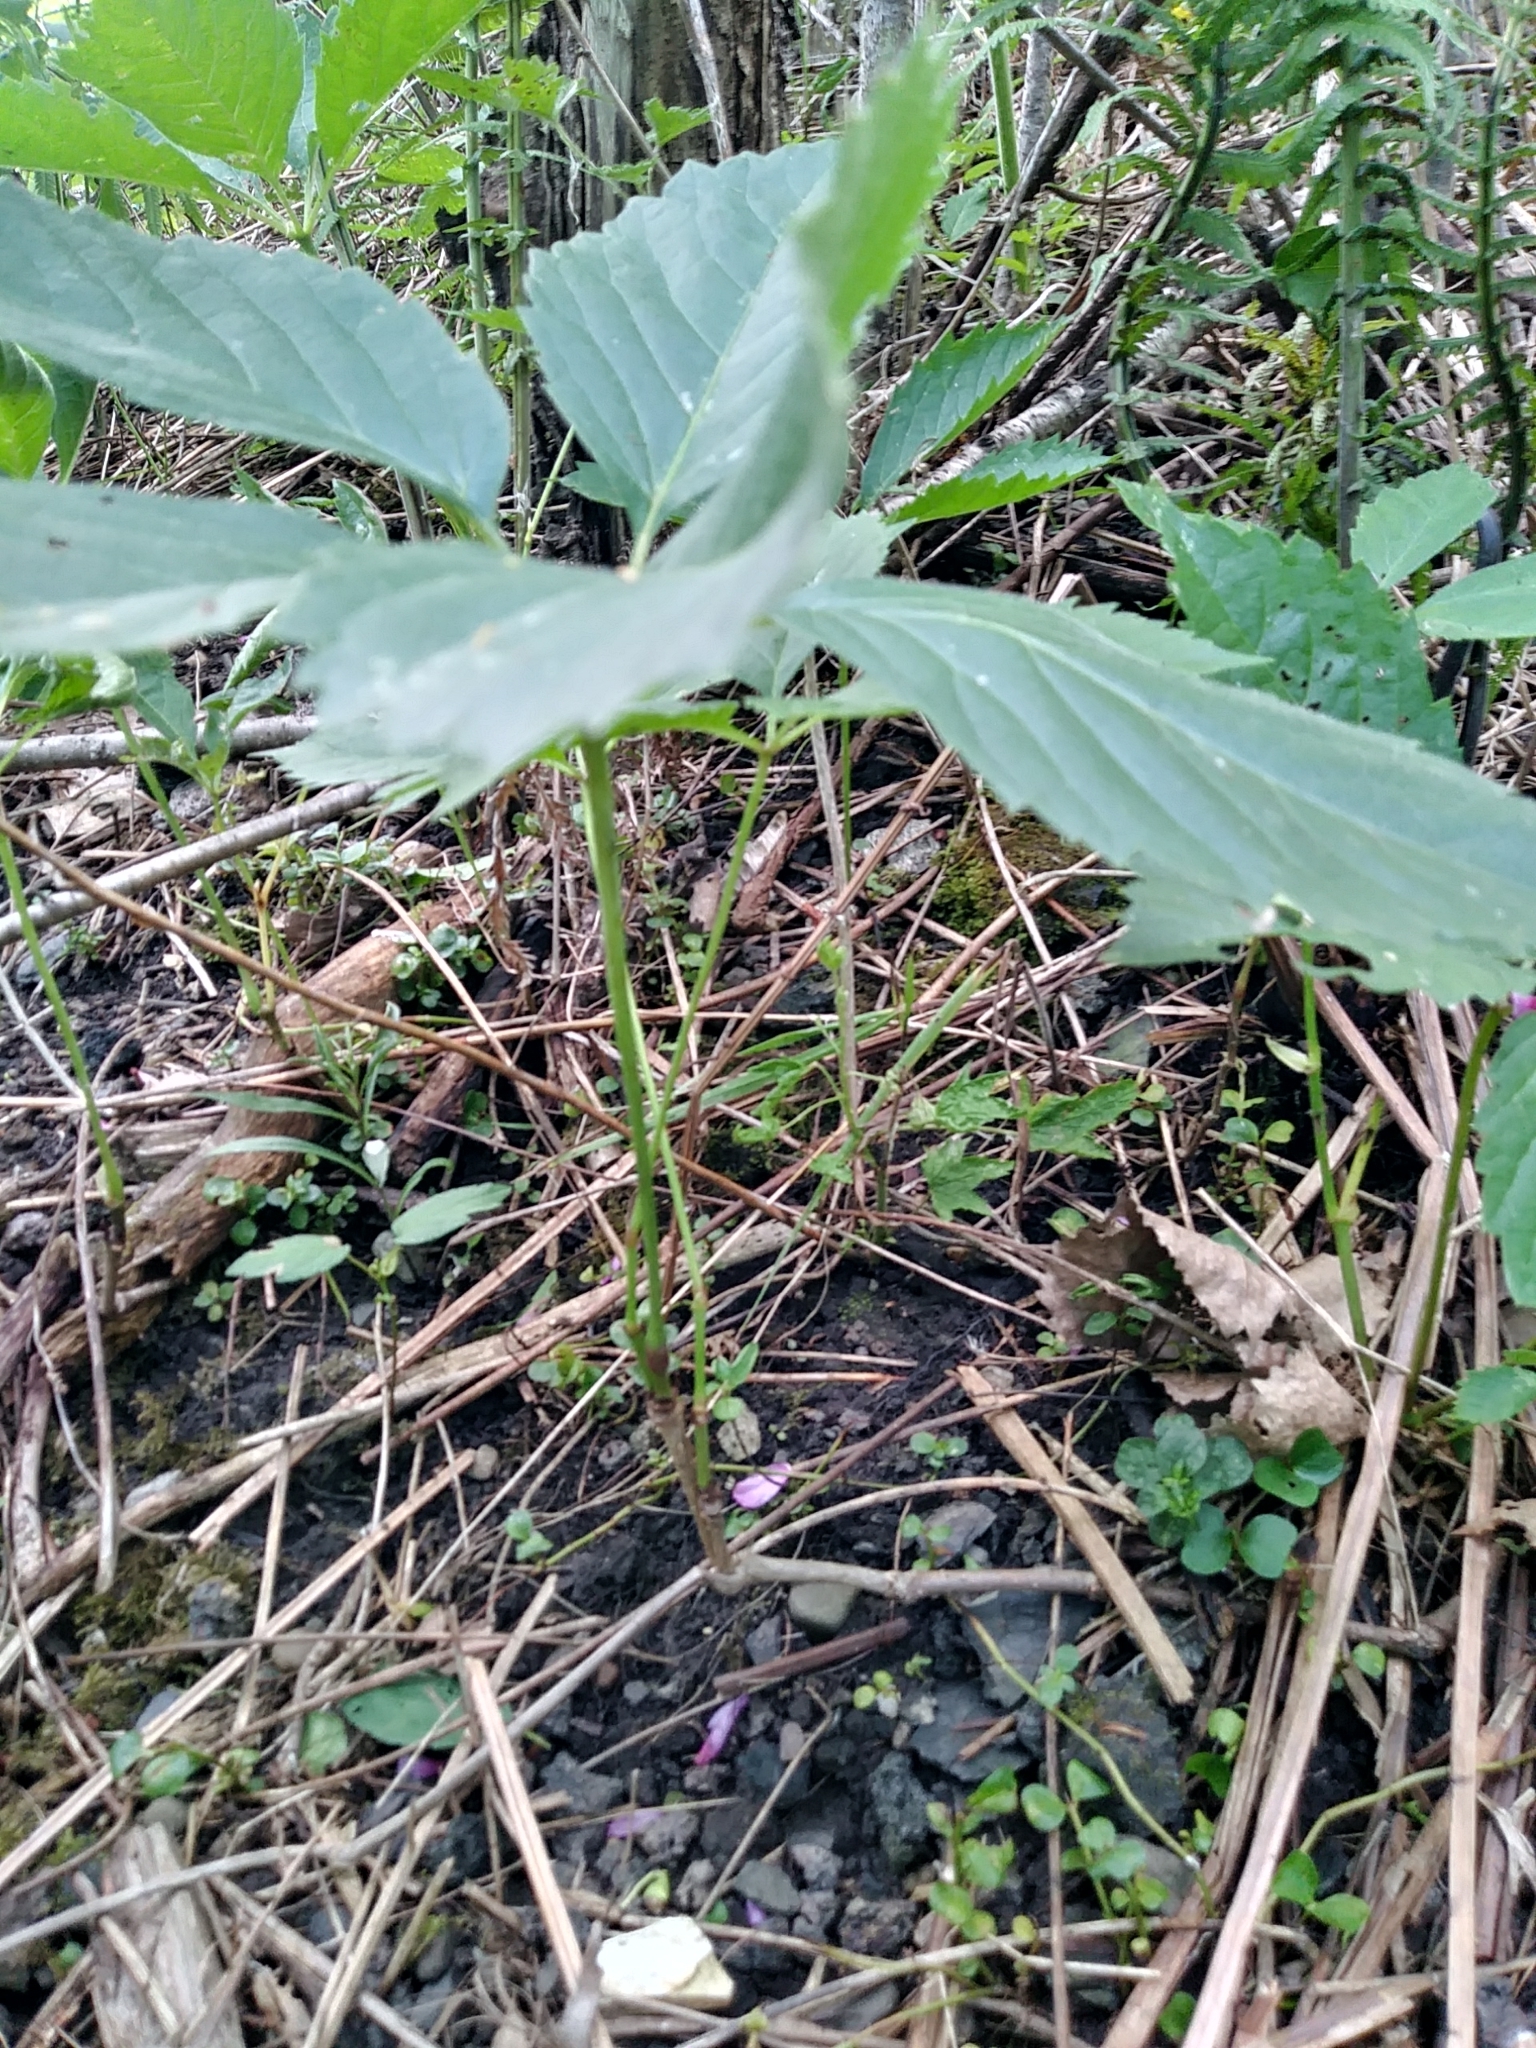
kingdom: Plantae
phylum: Tracheophyta
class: Magnoliopsida
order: Vitales
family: Vitaceae
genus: Parthenocissus
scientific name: Parthenocissus quinquefolia
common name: Virginia-creeper
